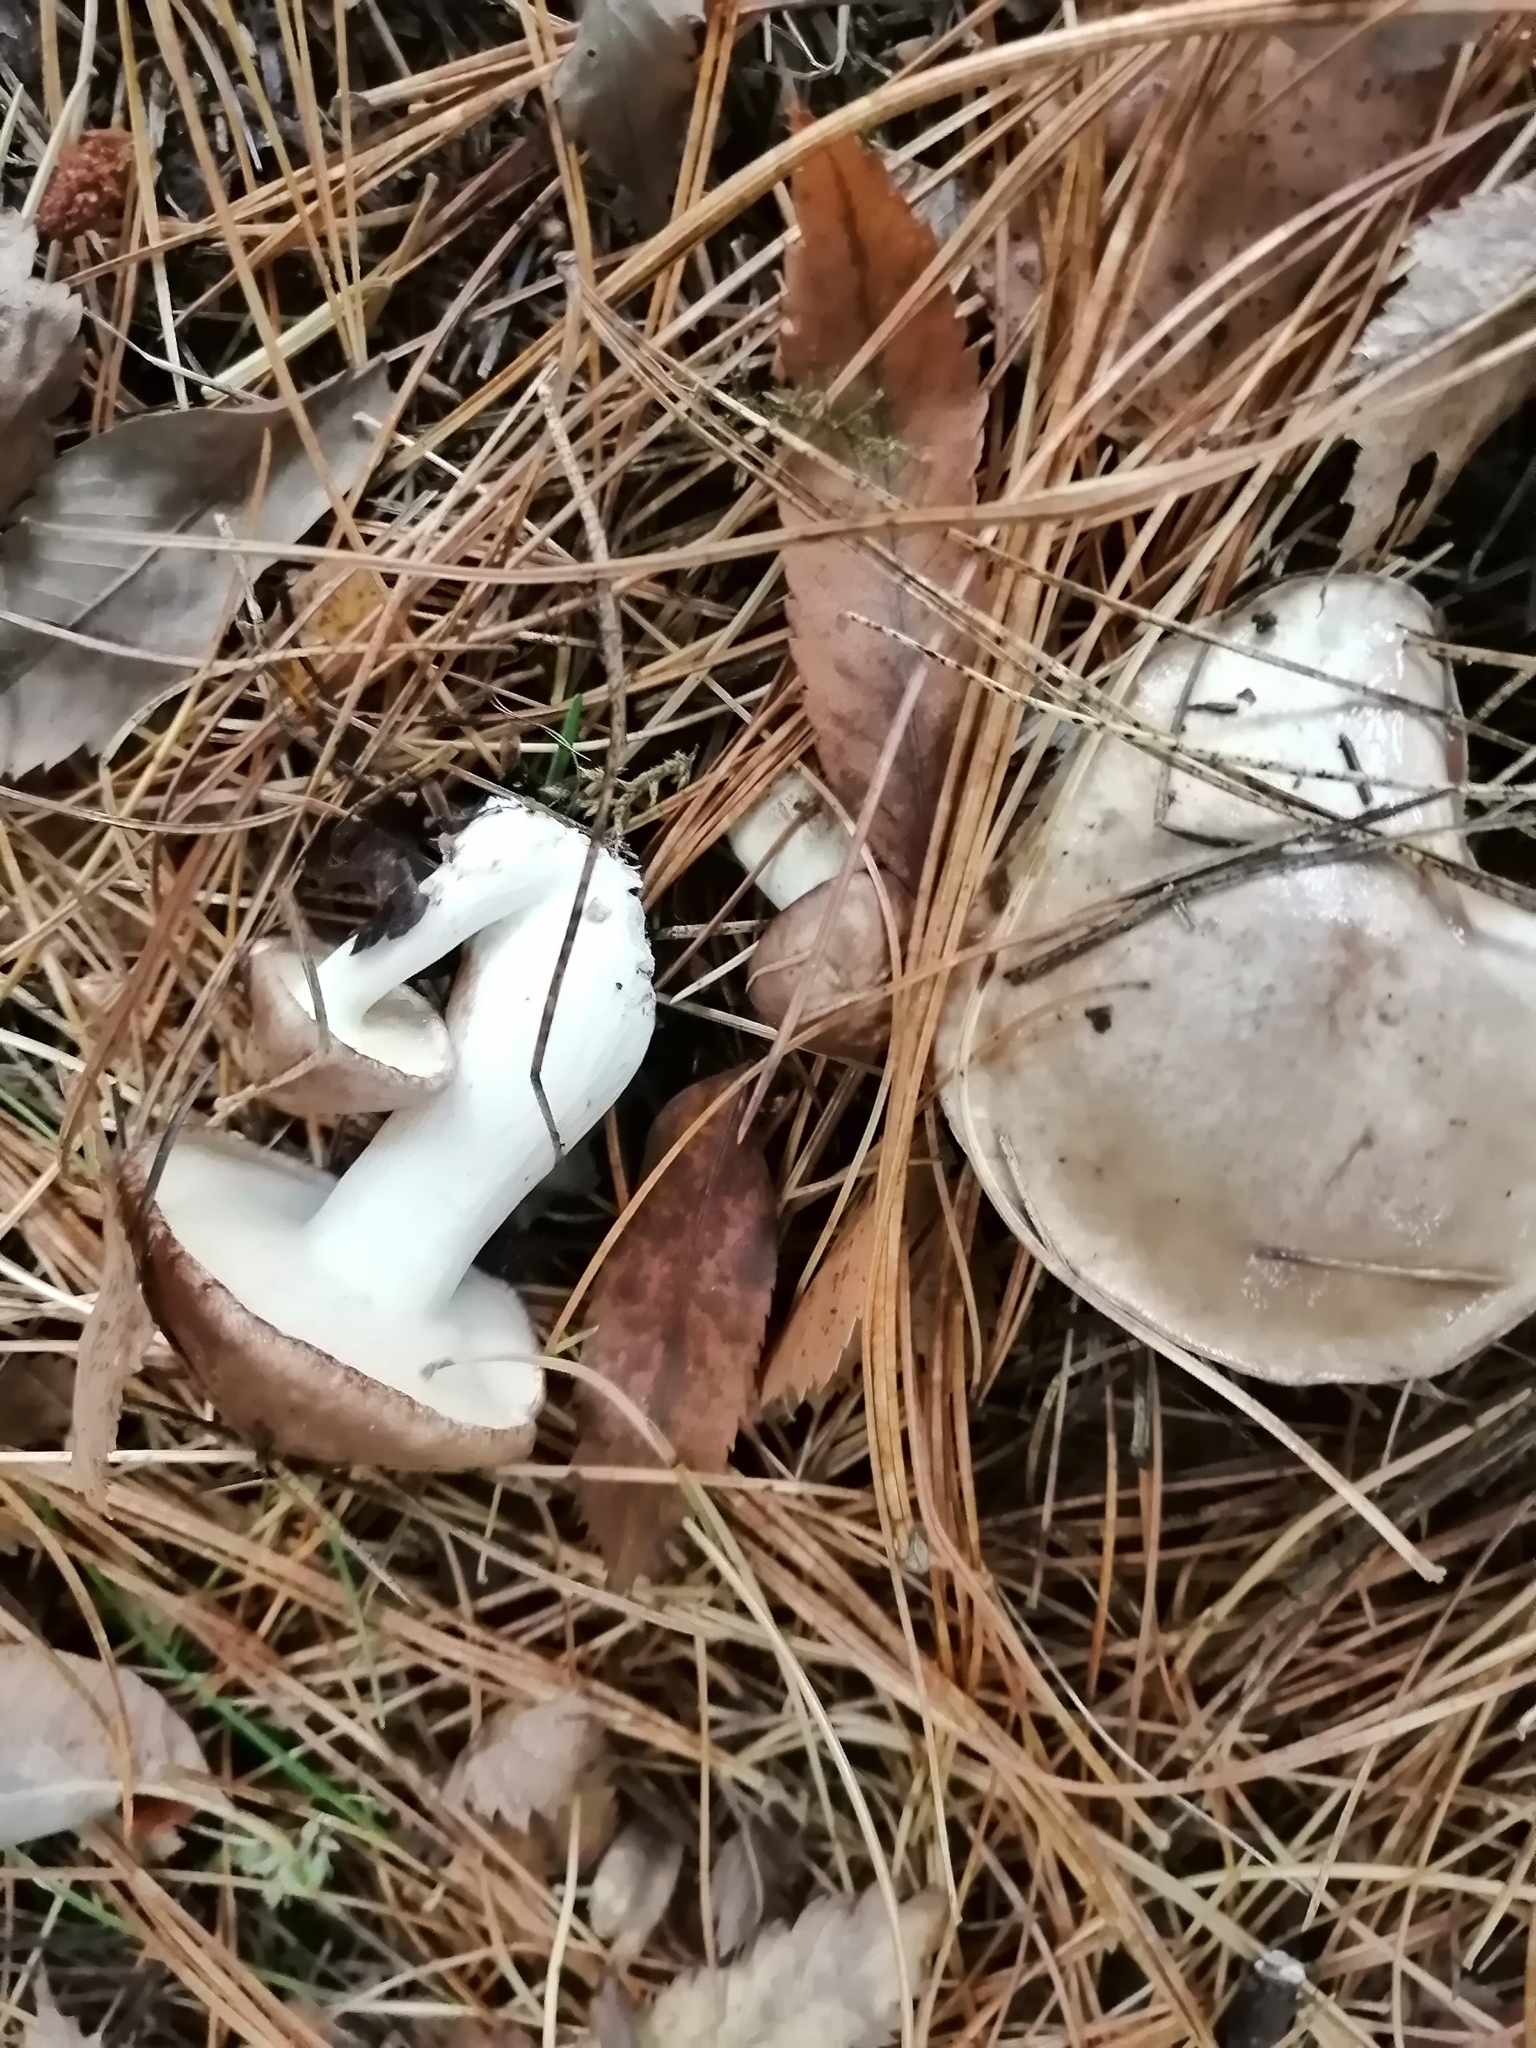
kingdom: Fungi
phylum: Basidiomycota
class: Agaricomycetes
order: Boletales
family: Suillaceae
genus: Suillus
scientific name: Suillus placidus
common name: Slippery white bolete
